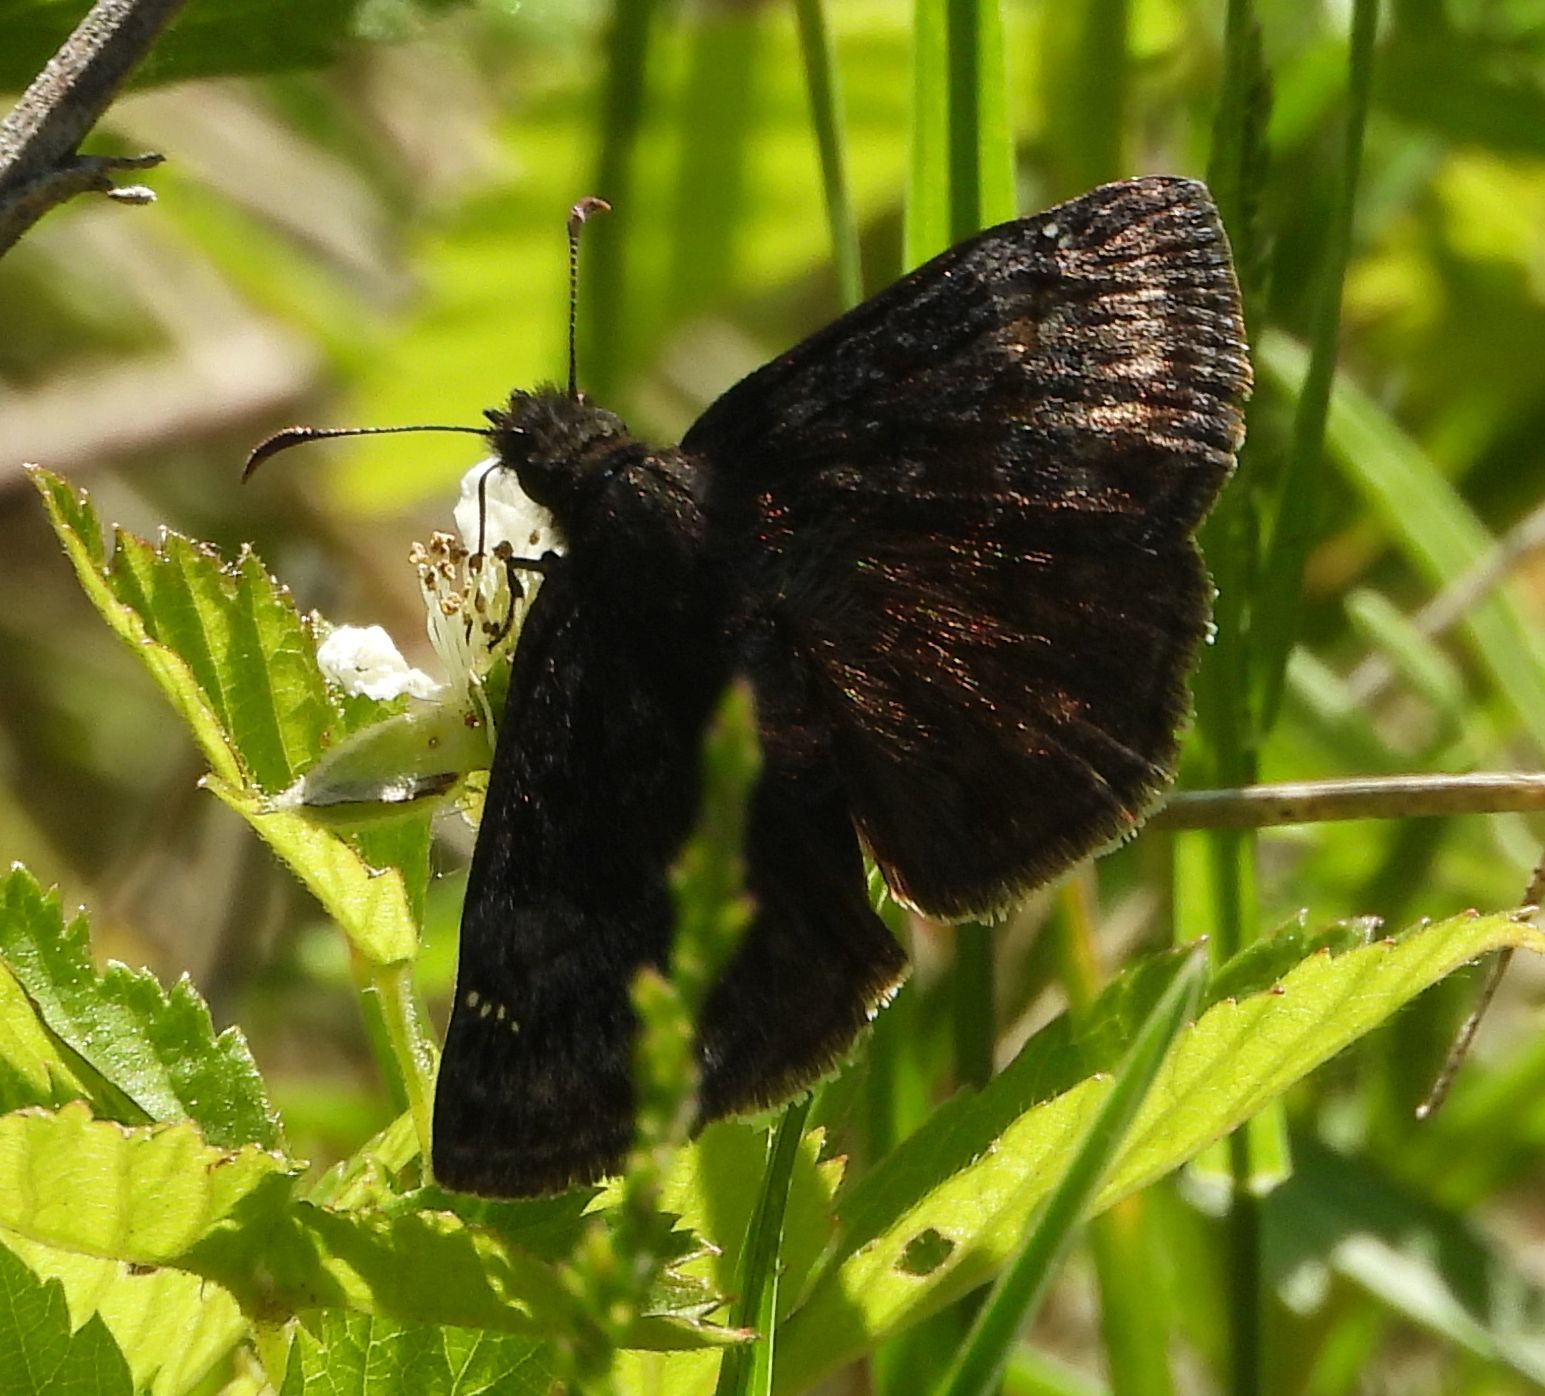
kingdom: Animalia
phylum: Arthropoda
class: Insecta
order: Lepidoptera
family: Hesperiidae
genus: Erynnis
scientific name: Erynnis baptisiae
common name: Wild indigo duskywing
